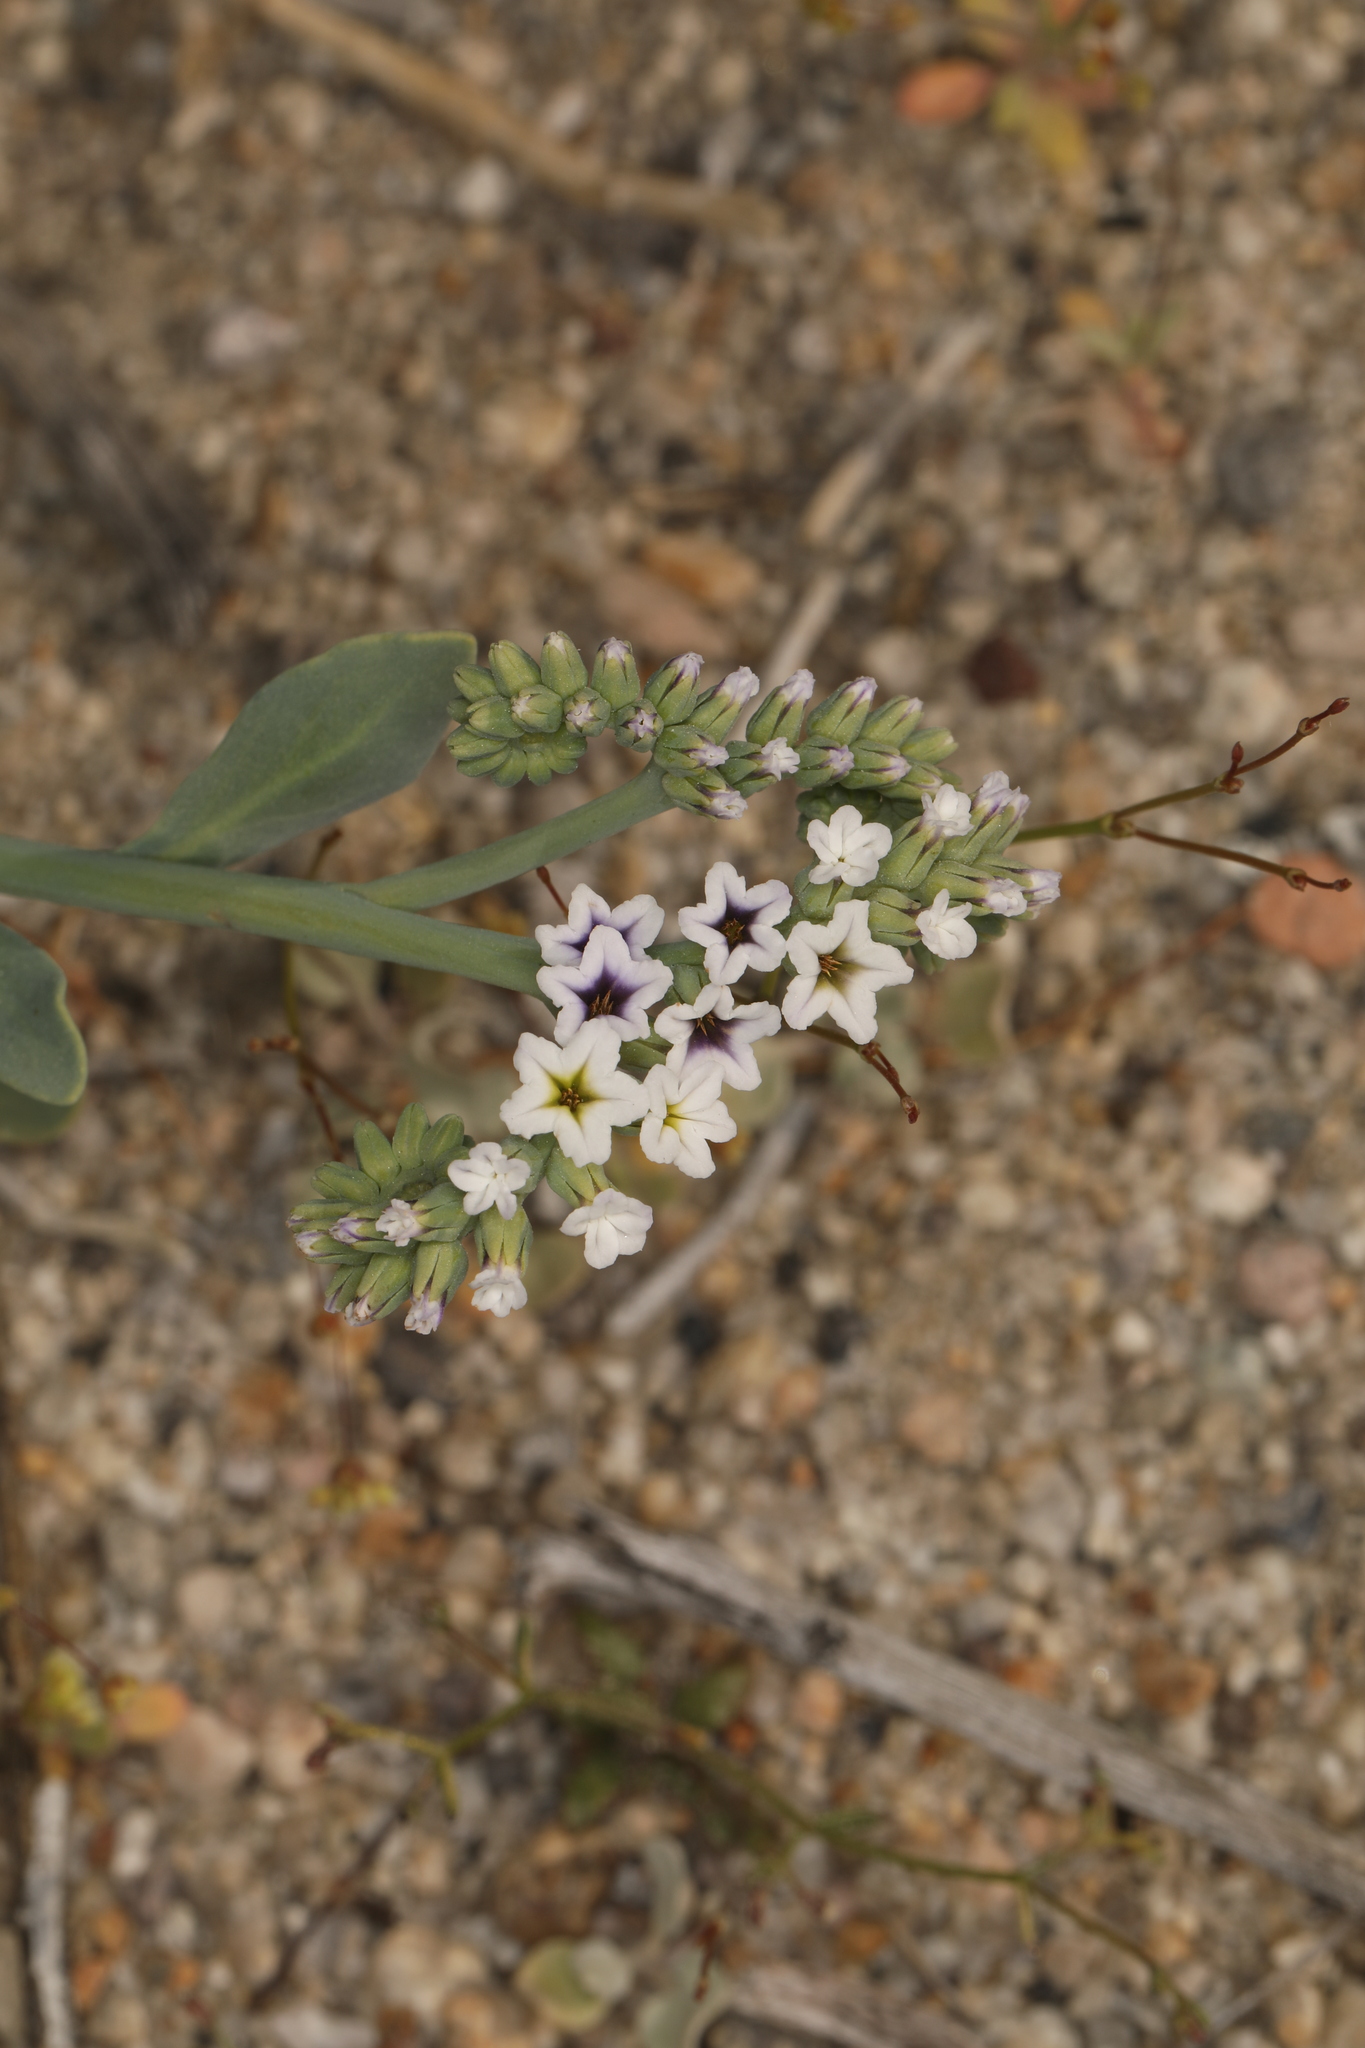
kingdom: Plantae
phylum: Tracheophyta
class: Magnoliopsida
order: Boraginales
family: Heliotropiaceae
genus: Heliotropium
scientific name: Heliotropium curassavicum
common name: Seaside heliotrope
